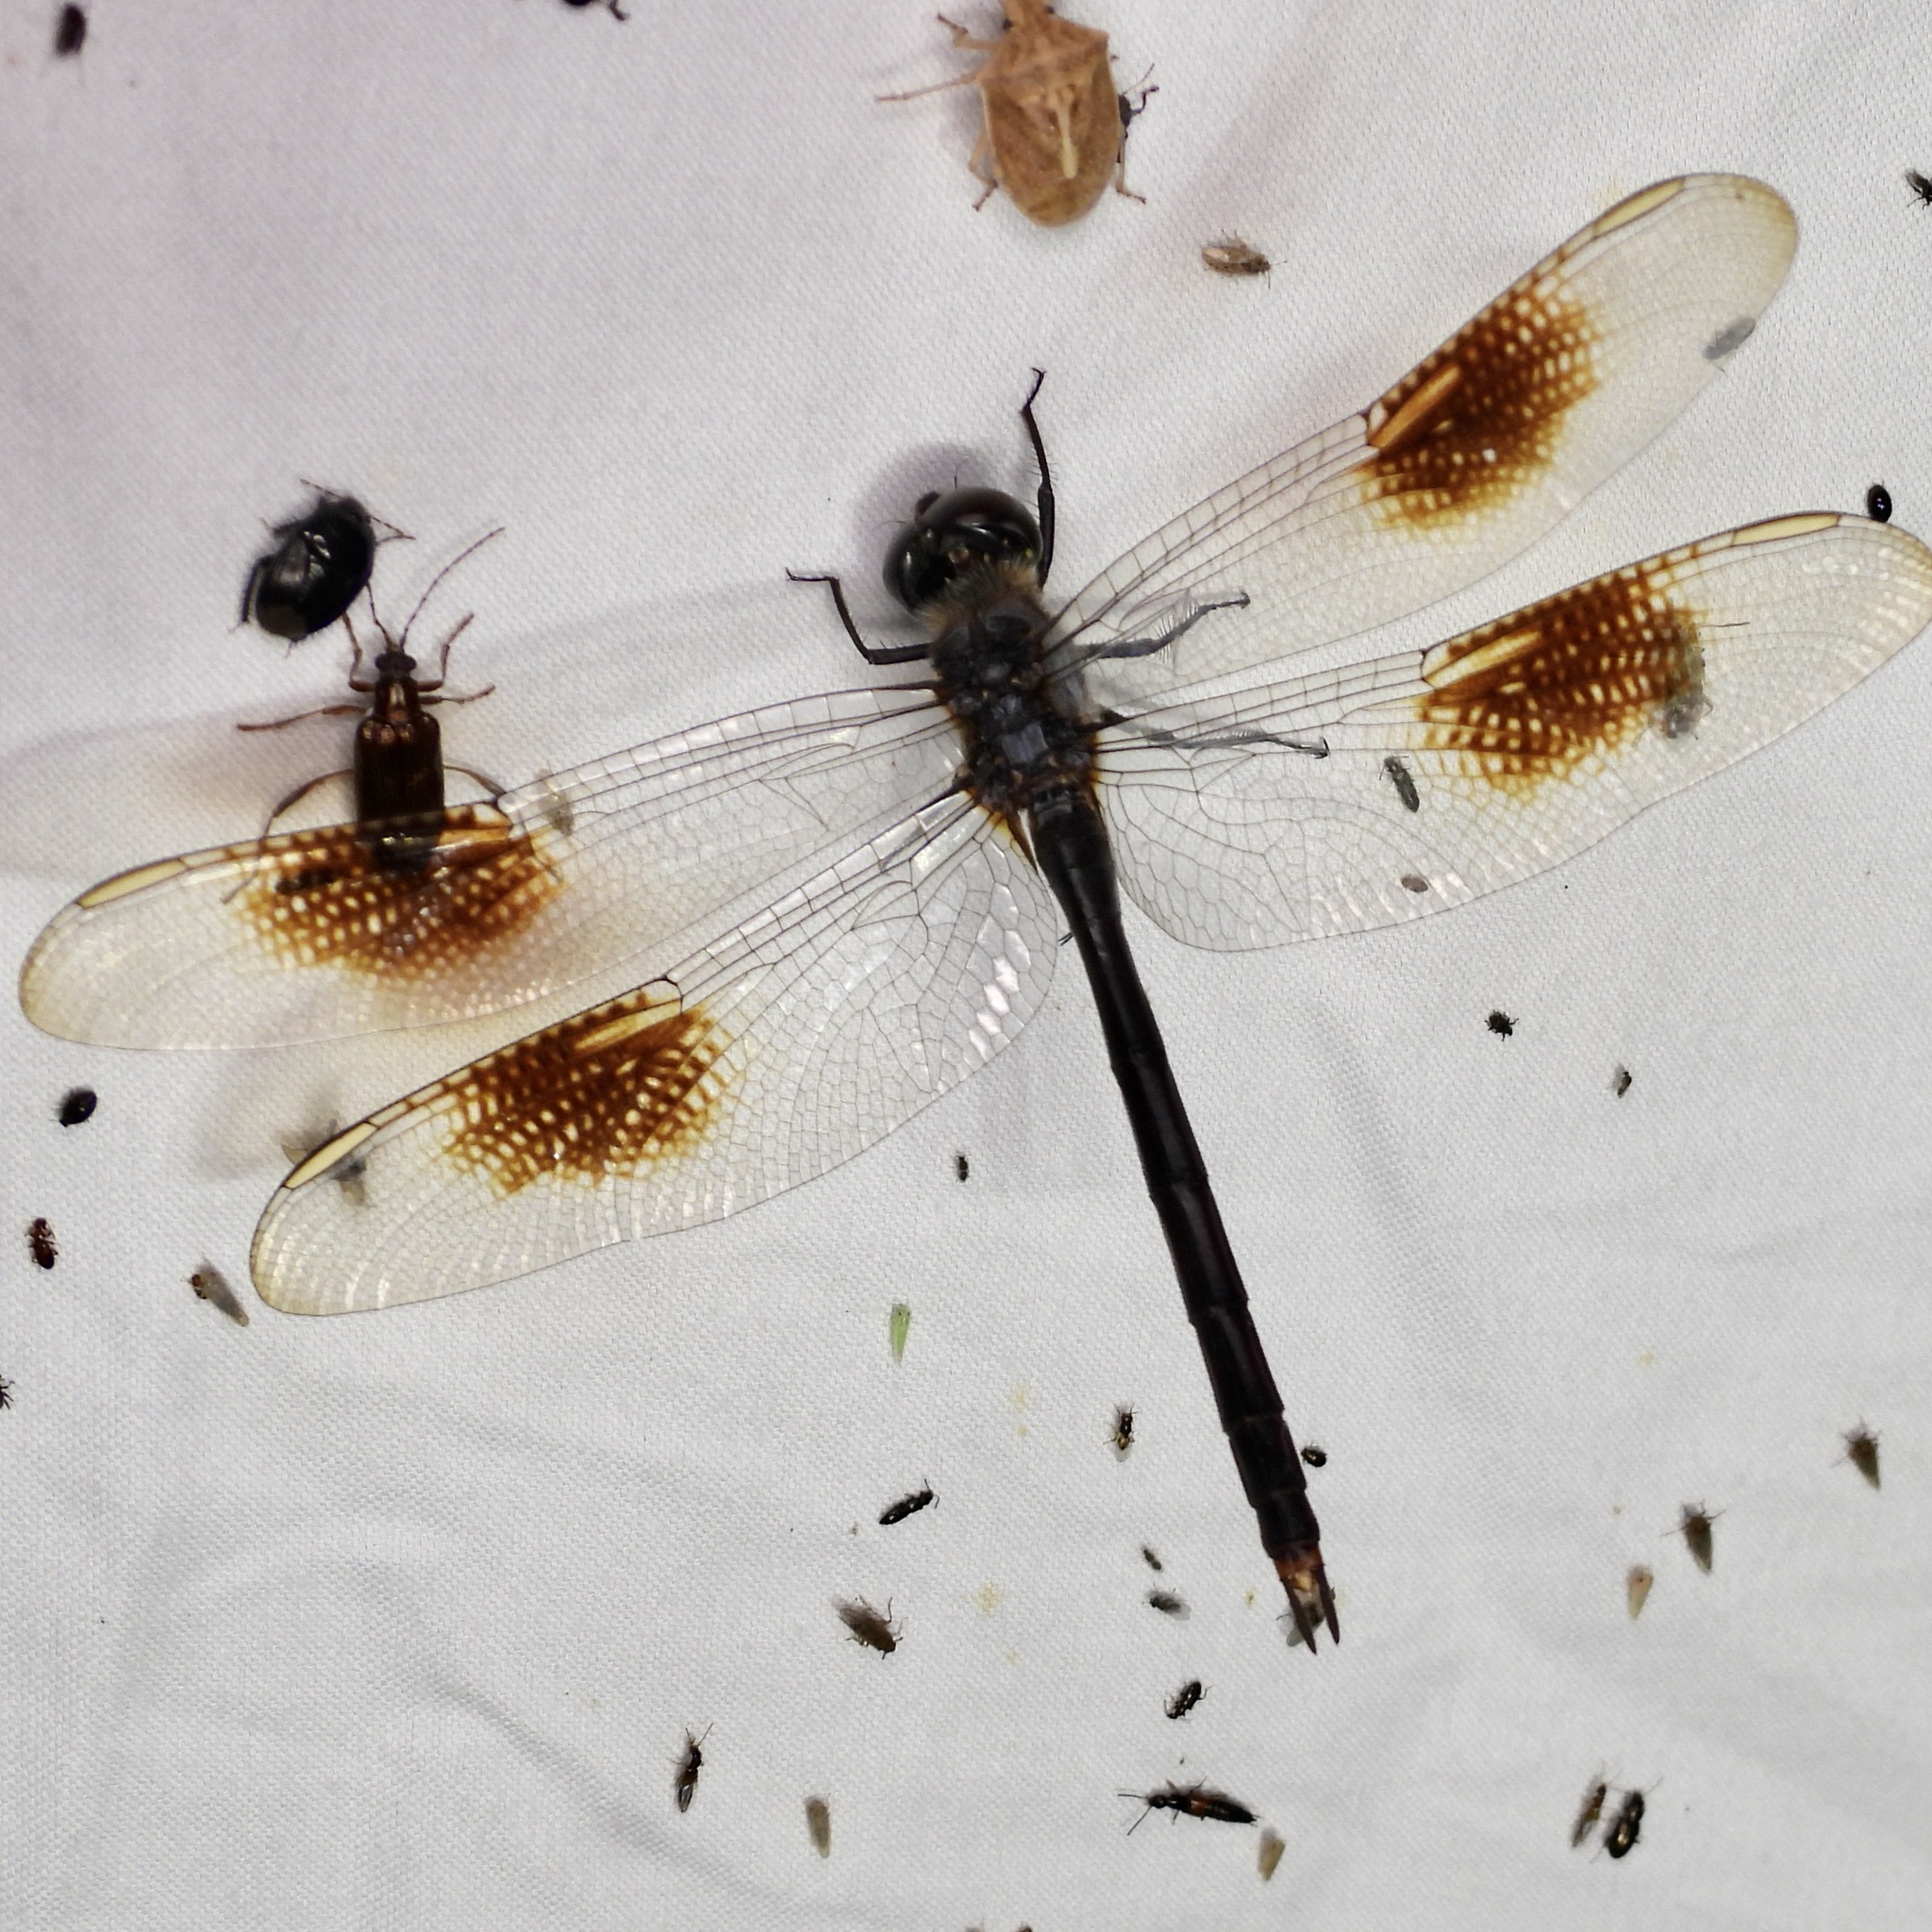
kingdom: Animalia
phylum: Arthropoda
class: Insecta
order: Odonata
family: Libellulidae
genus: Brachymesia
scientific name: Brachymesia gravida
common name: Four-spotted pennant
